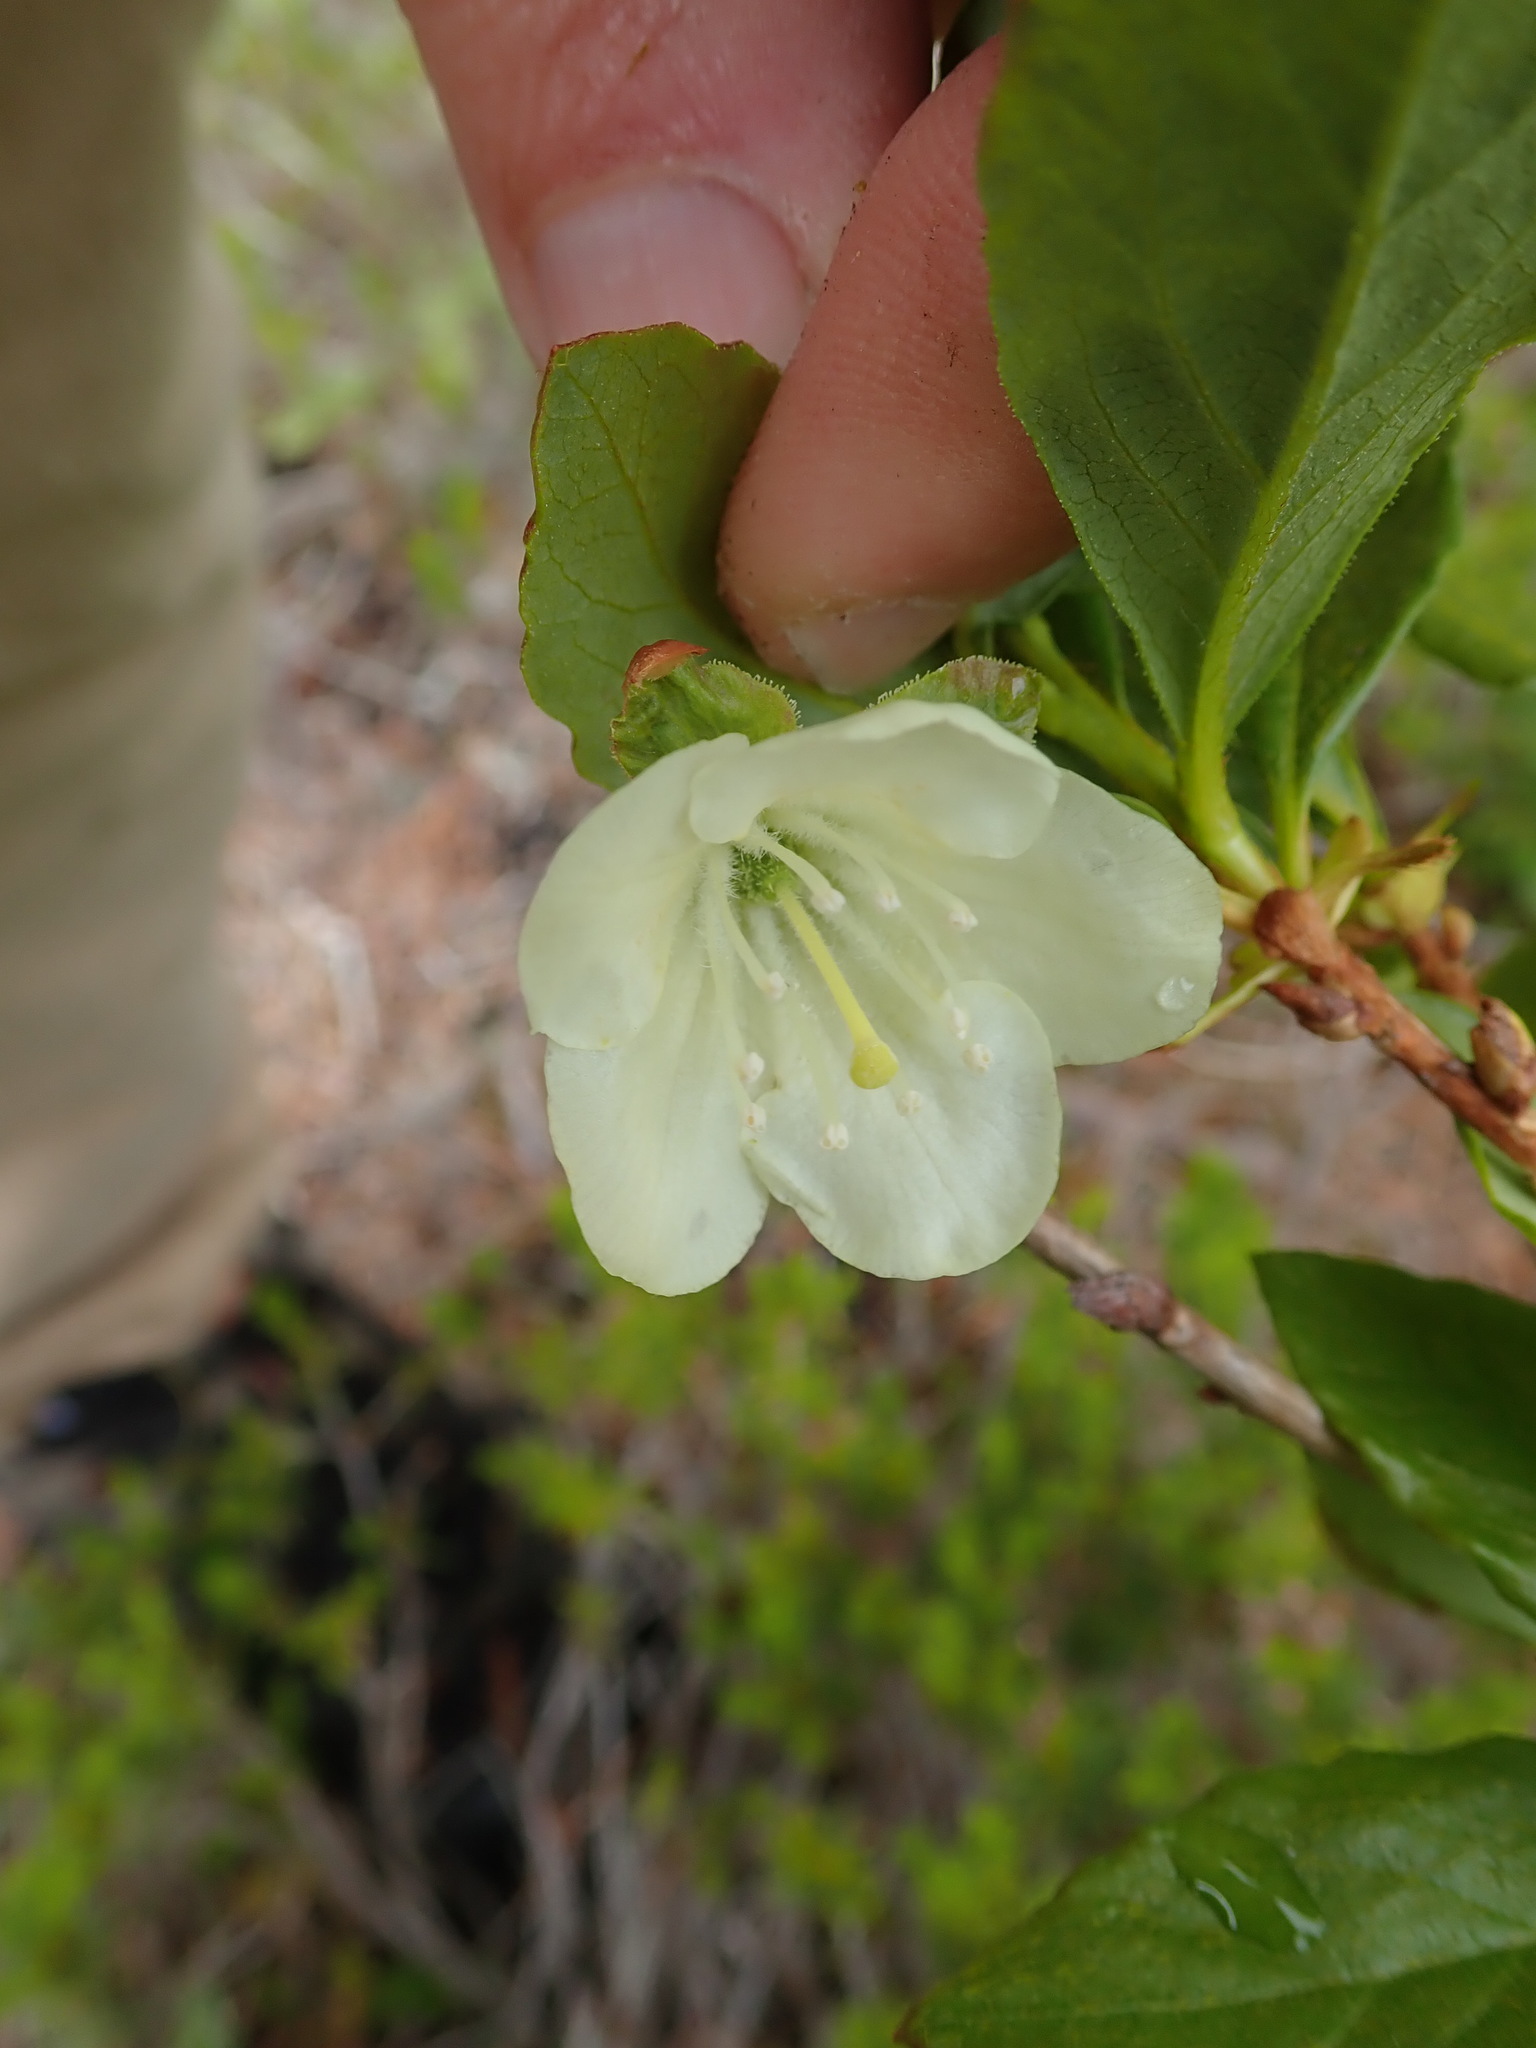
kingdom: Plantae
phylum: Tracheophyta
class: Magnoliopsida
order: Ericales
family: Ericaceae
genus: Rhododendron
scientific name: Rhododendron albiflorum
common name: White rhododendron
